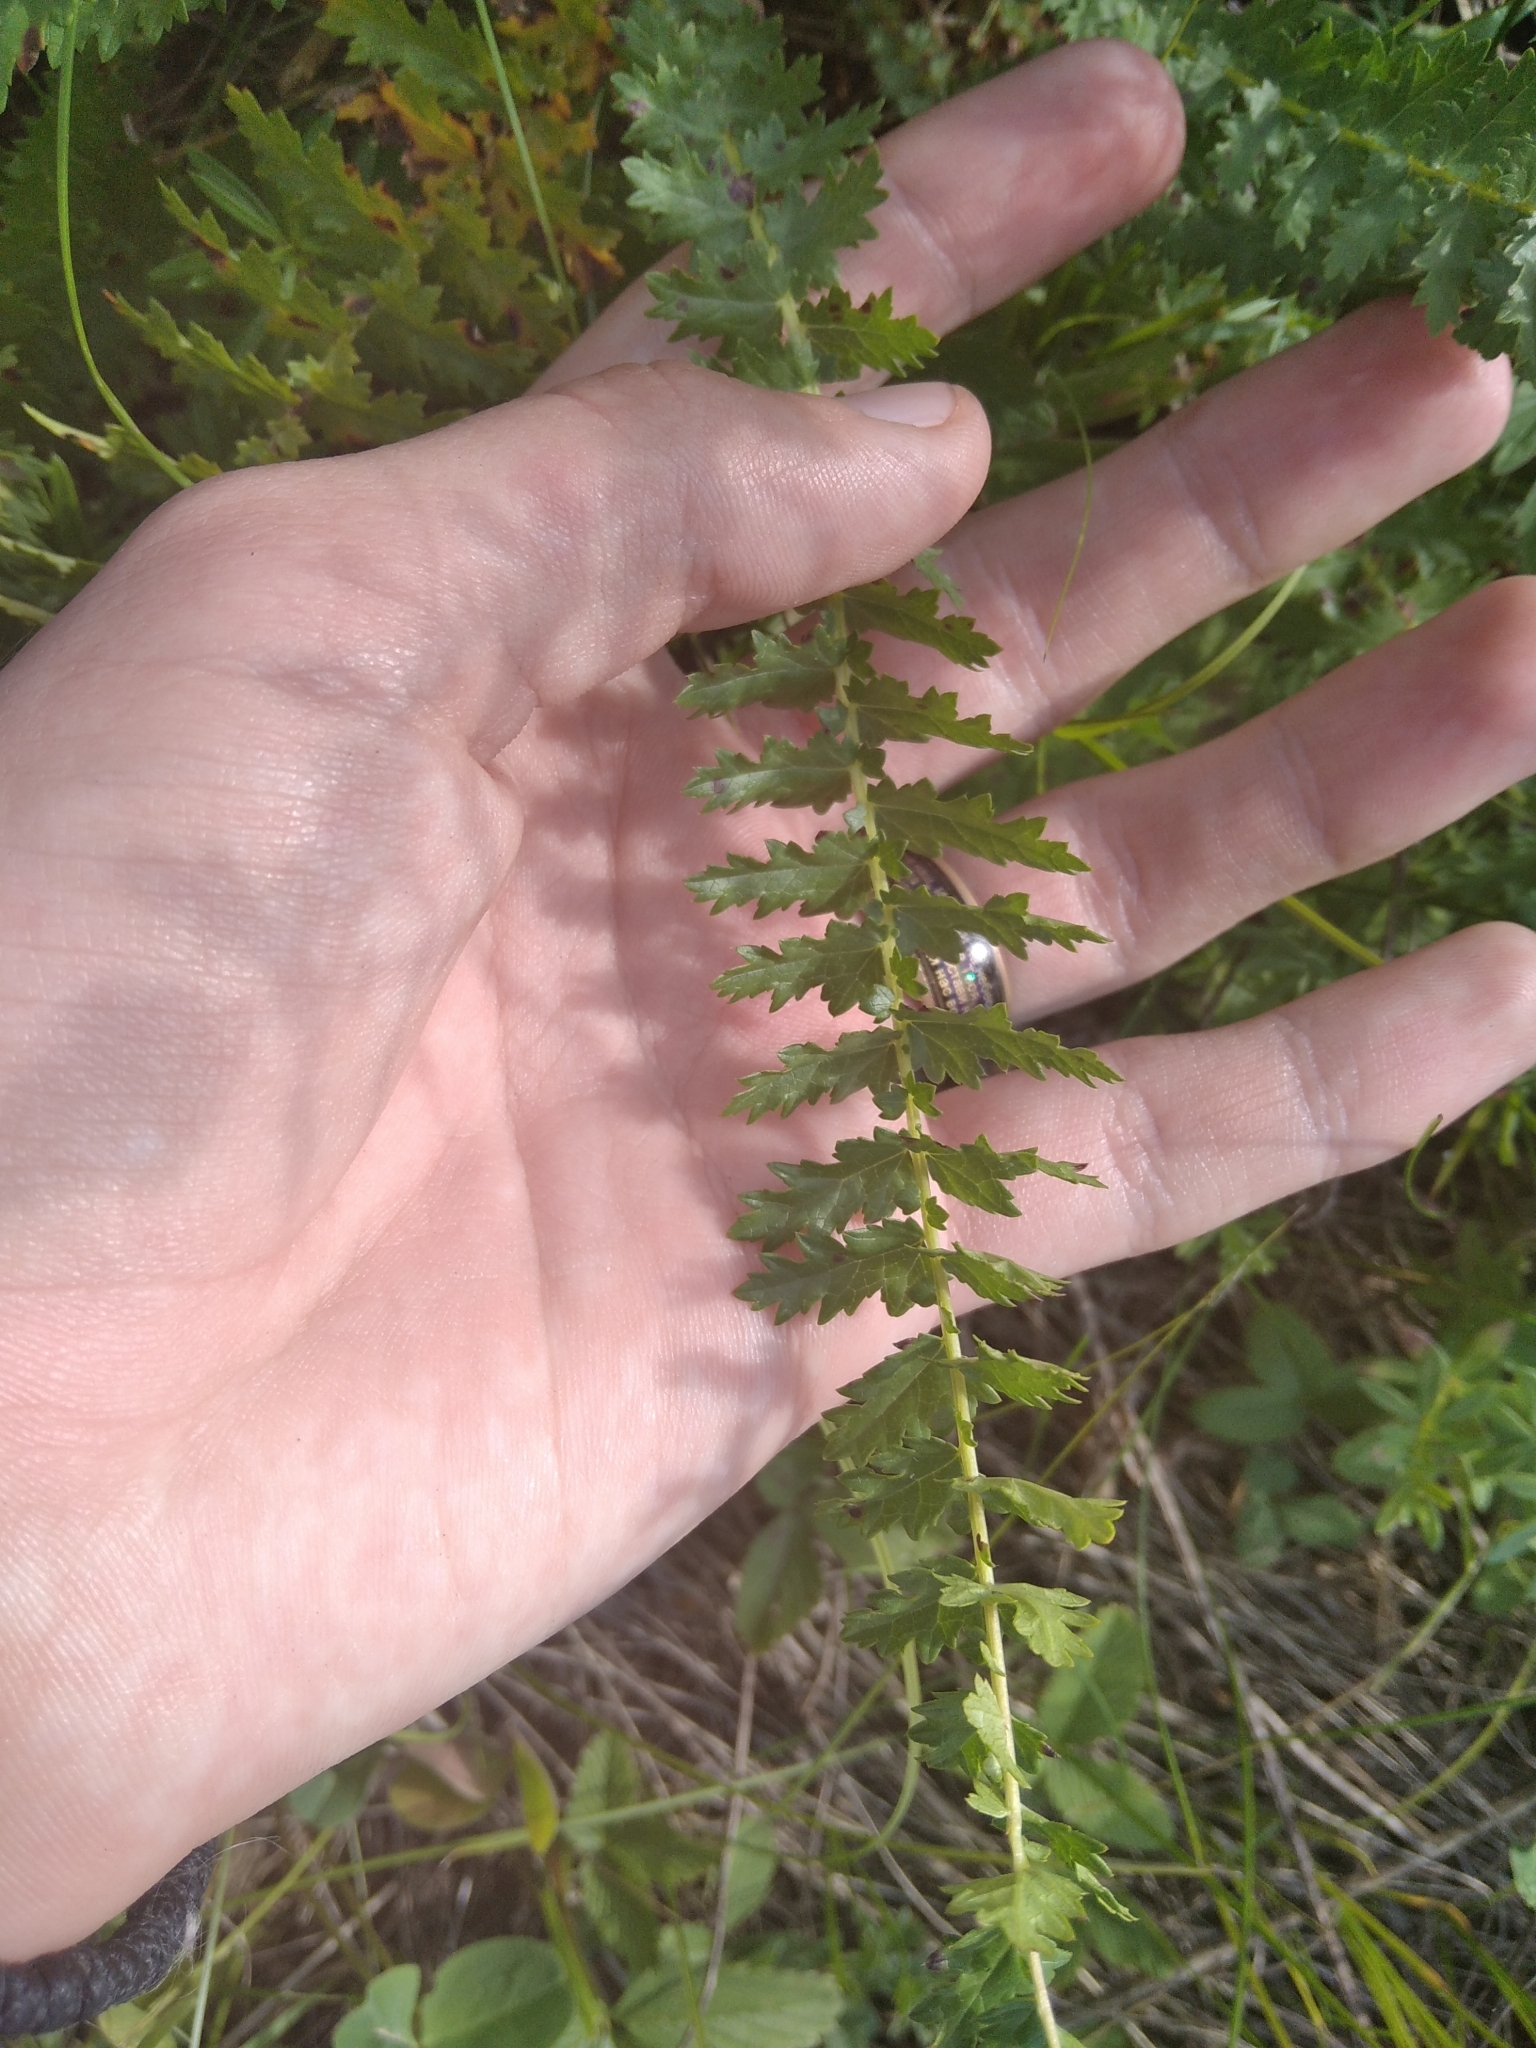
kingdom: Plantae
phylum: Tracheophyta
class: Magnoliopsida
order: Rosales
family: Rosaceae
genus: Filipendula
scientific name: Filipendula vulgaris
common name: Dropwort
